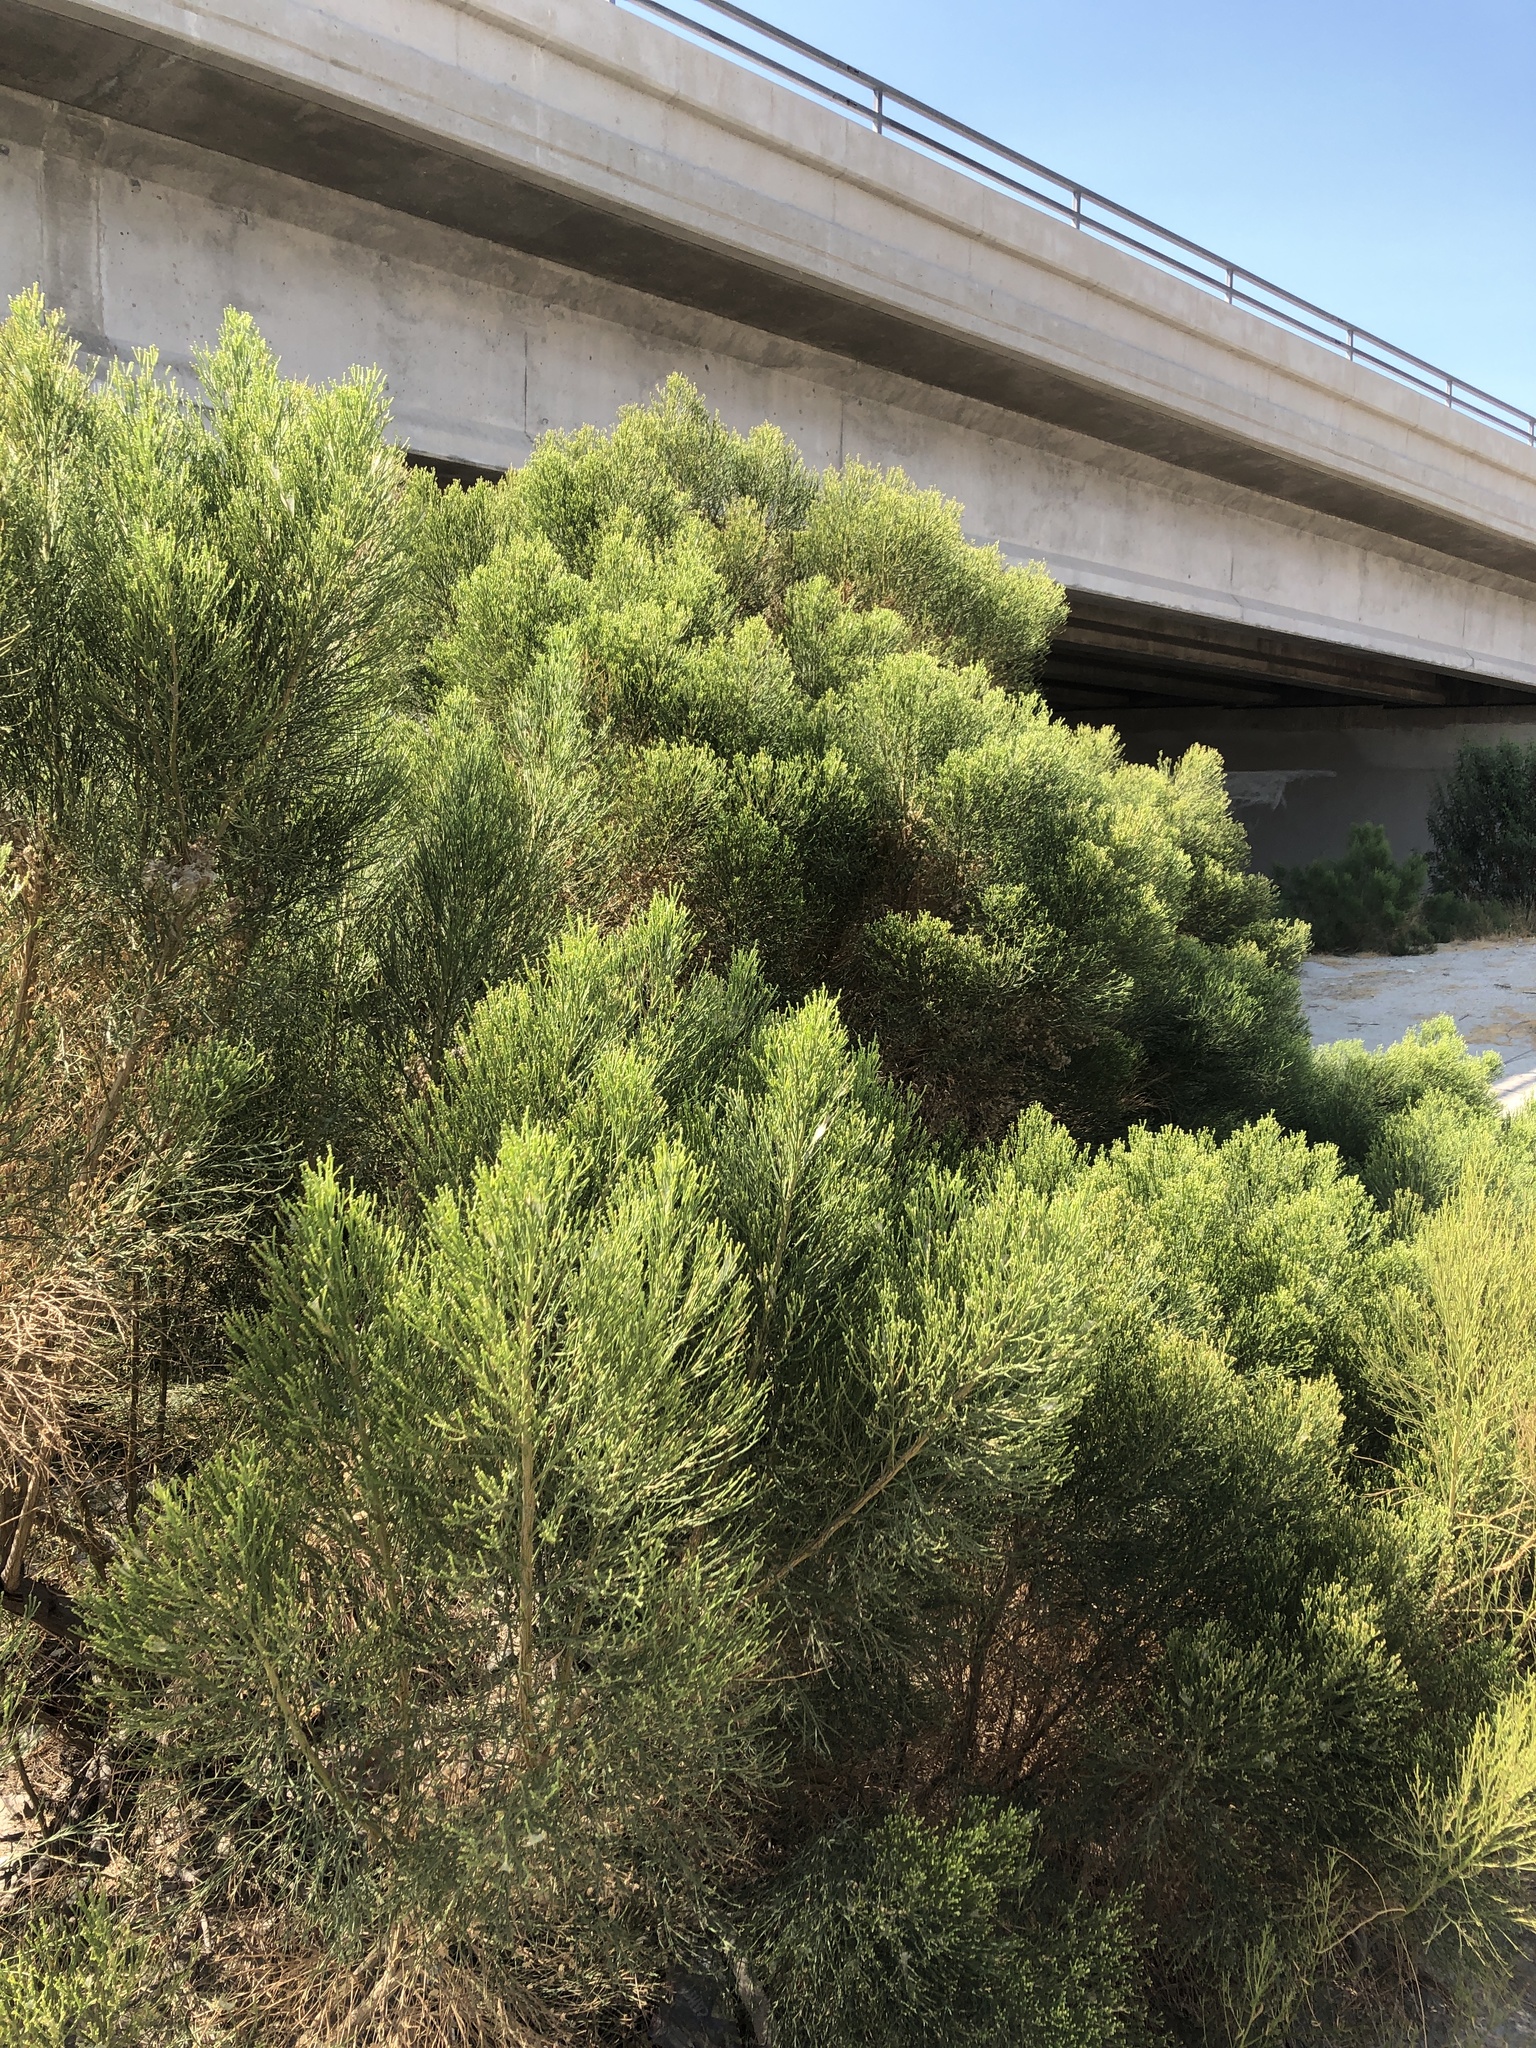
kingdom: Plantae
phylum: Tracheophyta
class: Magnoliopsida
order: Asterales
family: Asteraceae
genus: Baccharis
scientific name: Baccharis sarothroides
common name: Desert-broom
